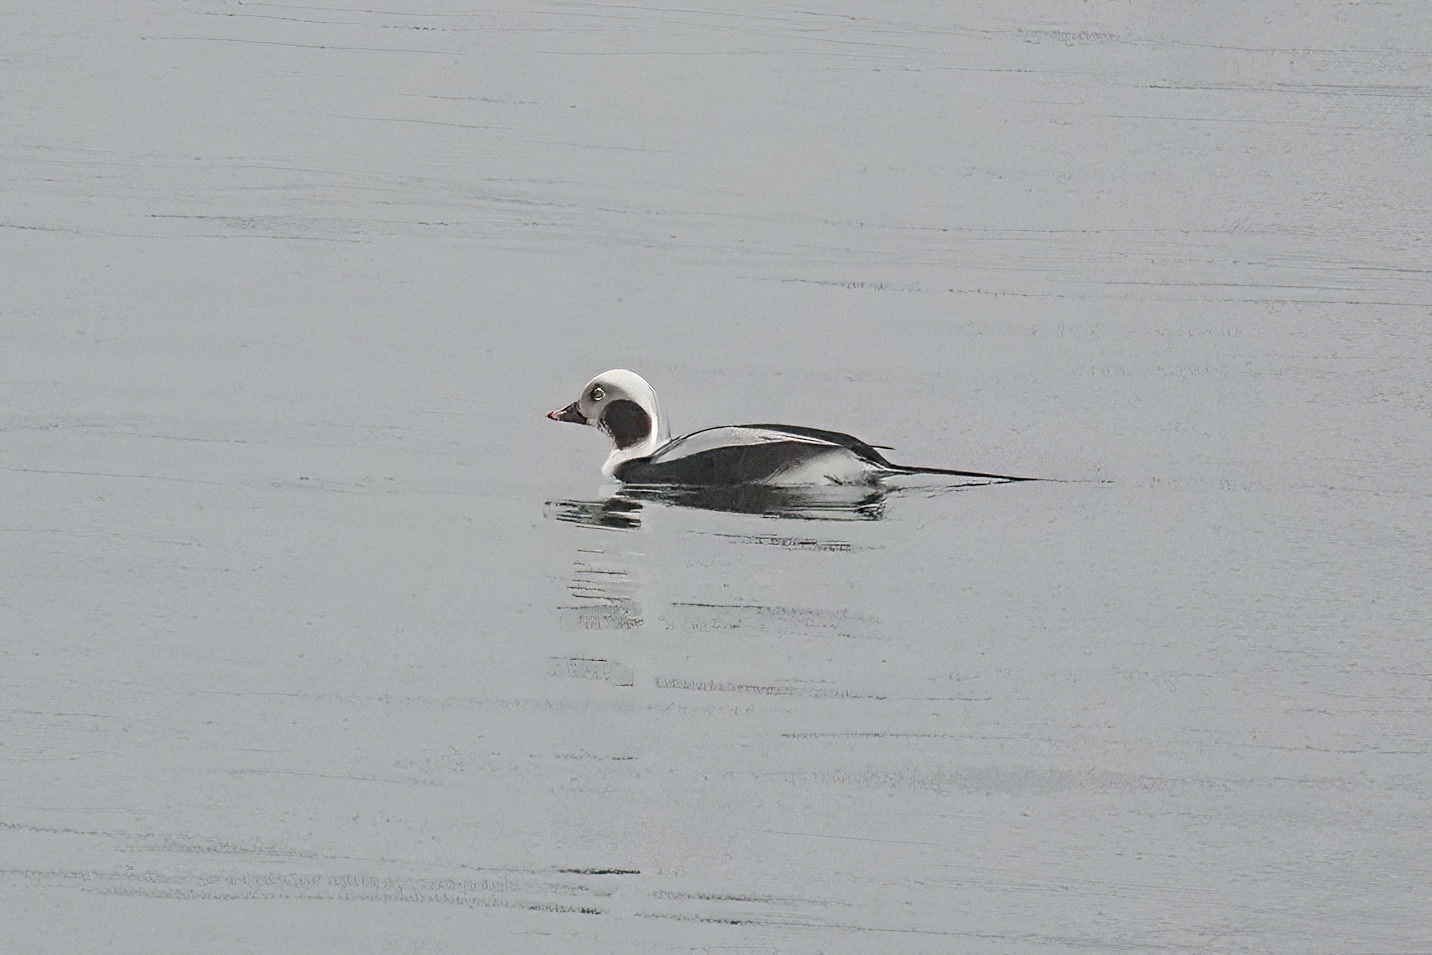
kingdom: Animalia
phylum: Chordata
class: Aves
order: Anseriformes
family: Anatidae
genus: Clangula
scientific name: Clangula hyemalis
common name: Long-tailed duck
